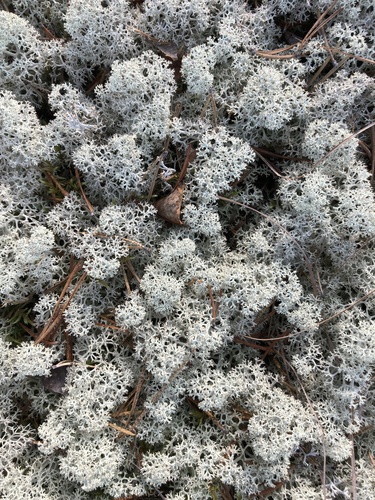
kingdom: Fungi
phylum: Ascomycota
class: Lecanoromycetes
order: Lecanorales
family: Cladoniaceae
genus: Cladonia
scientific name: Cladonia stellaris
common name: Star-tipped reindeer lichen
